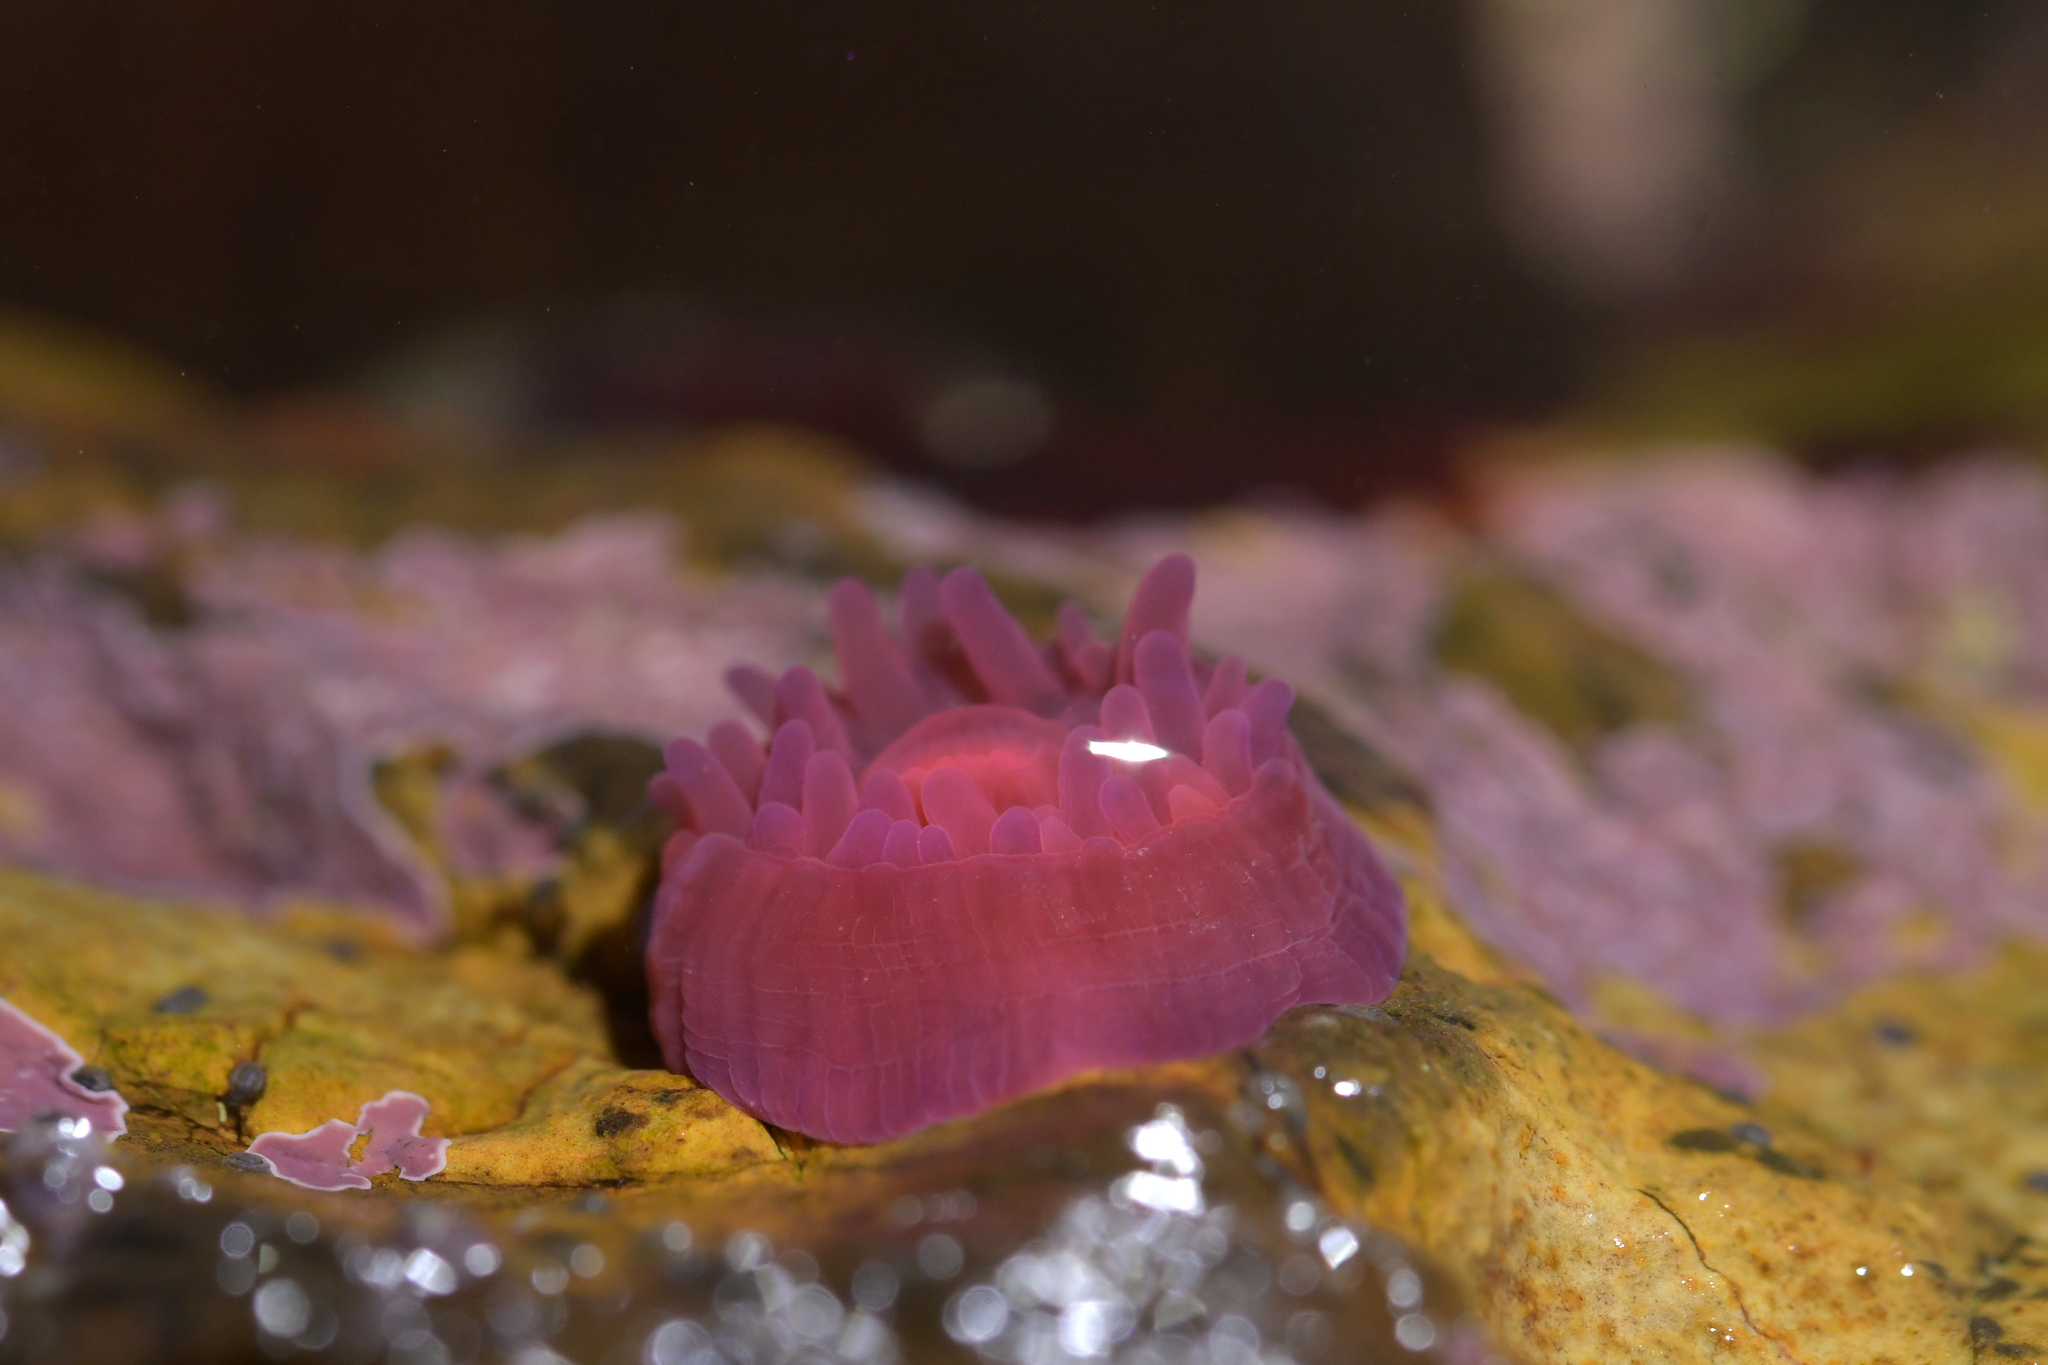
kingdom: Animalia
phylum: Cnidaria
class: Anthozoa
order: Actiniaria
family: Actiniidae
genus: Actinia
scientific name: Actinia tenebrosa
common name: Waratah anemone
